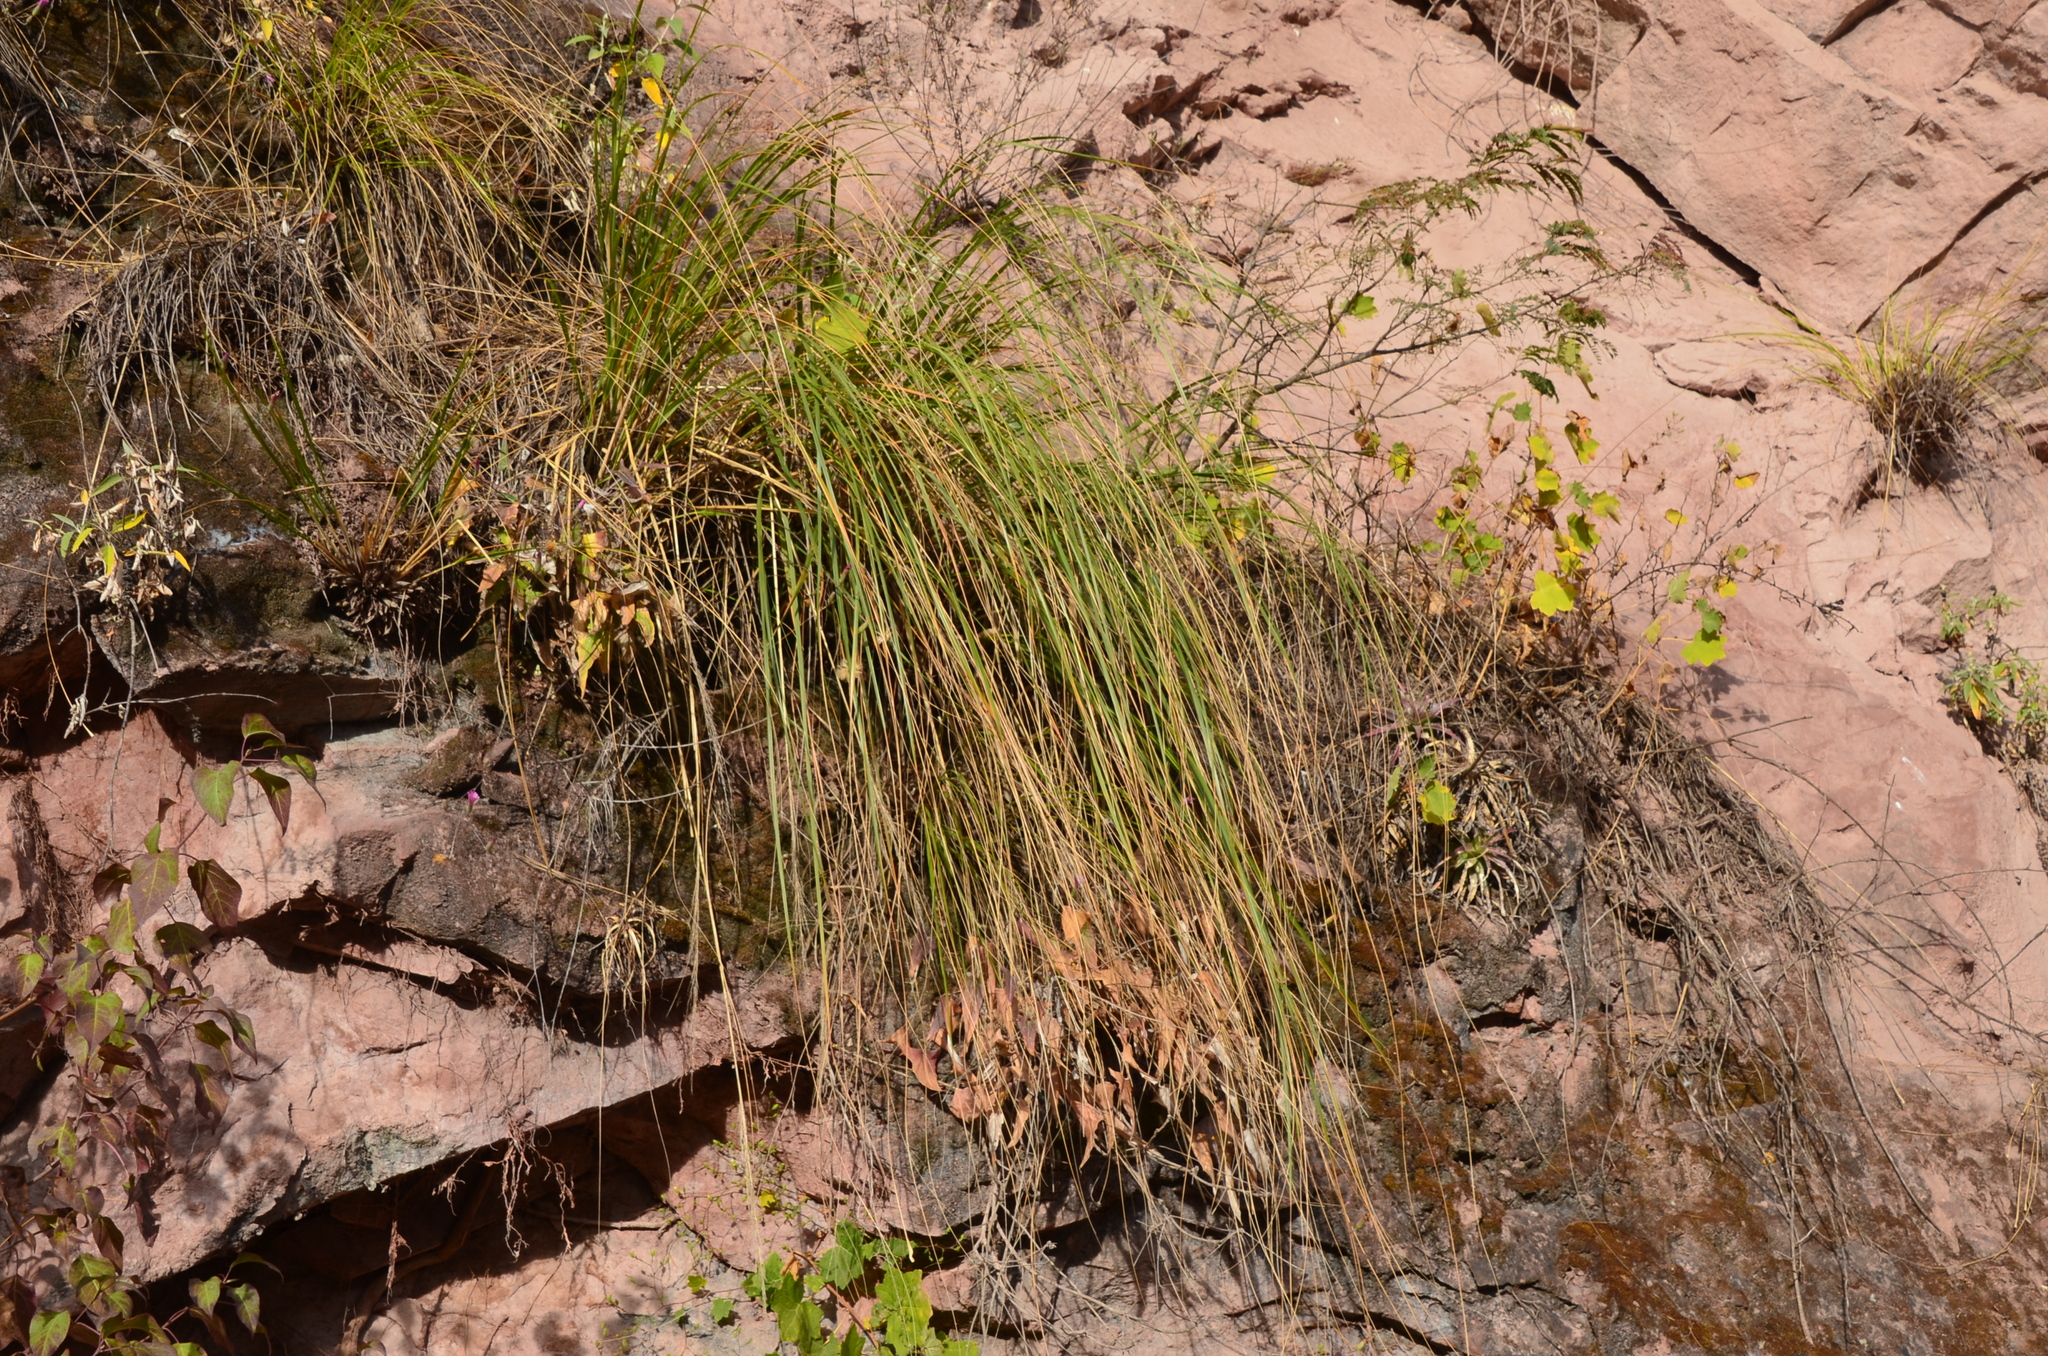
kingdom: Plantae
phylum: Tracheophyta
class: Liliopsida
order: Poales
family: Poaceae
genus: Cortaderia
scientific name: Cortaderia hieronymi
